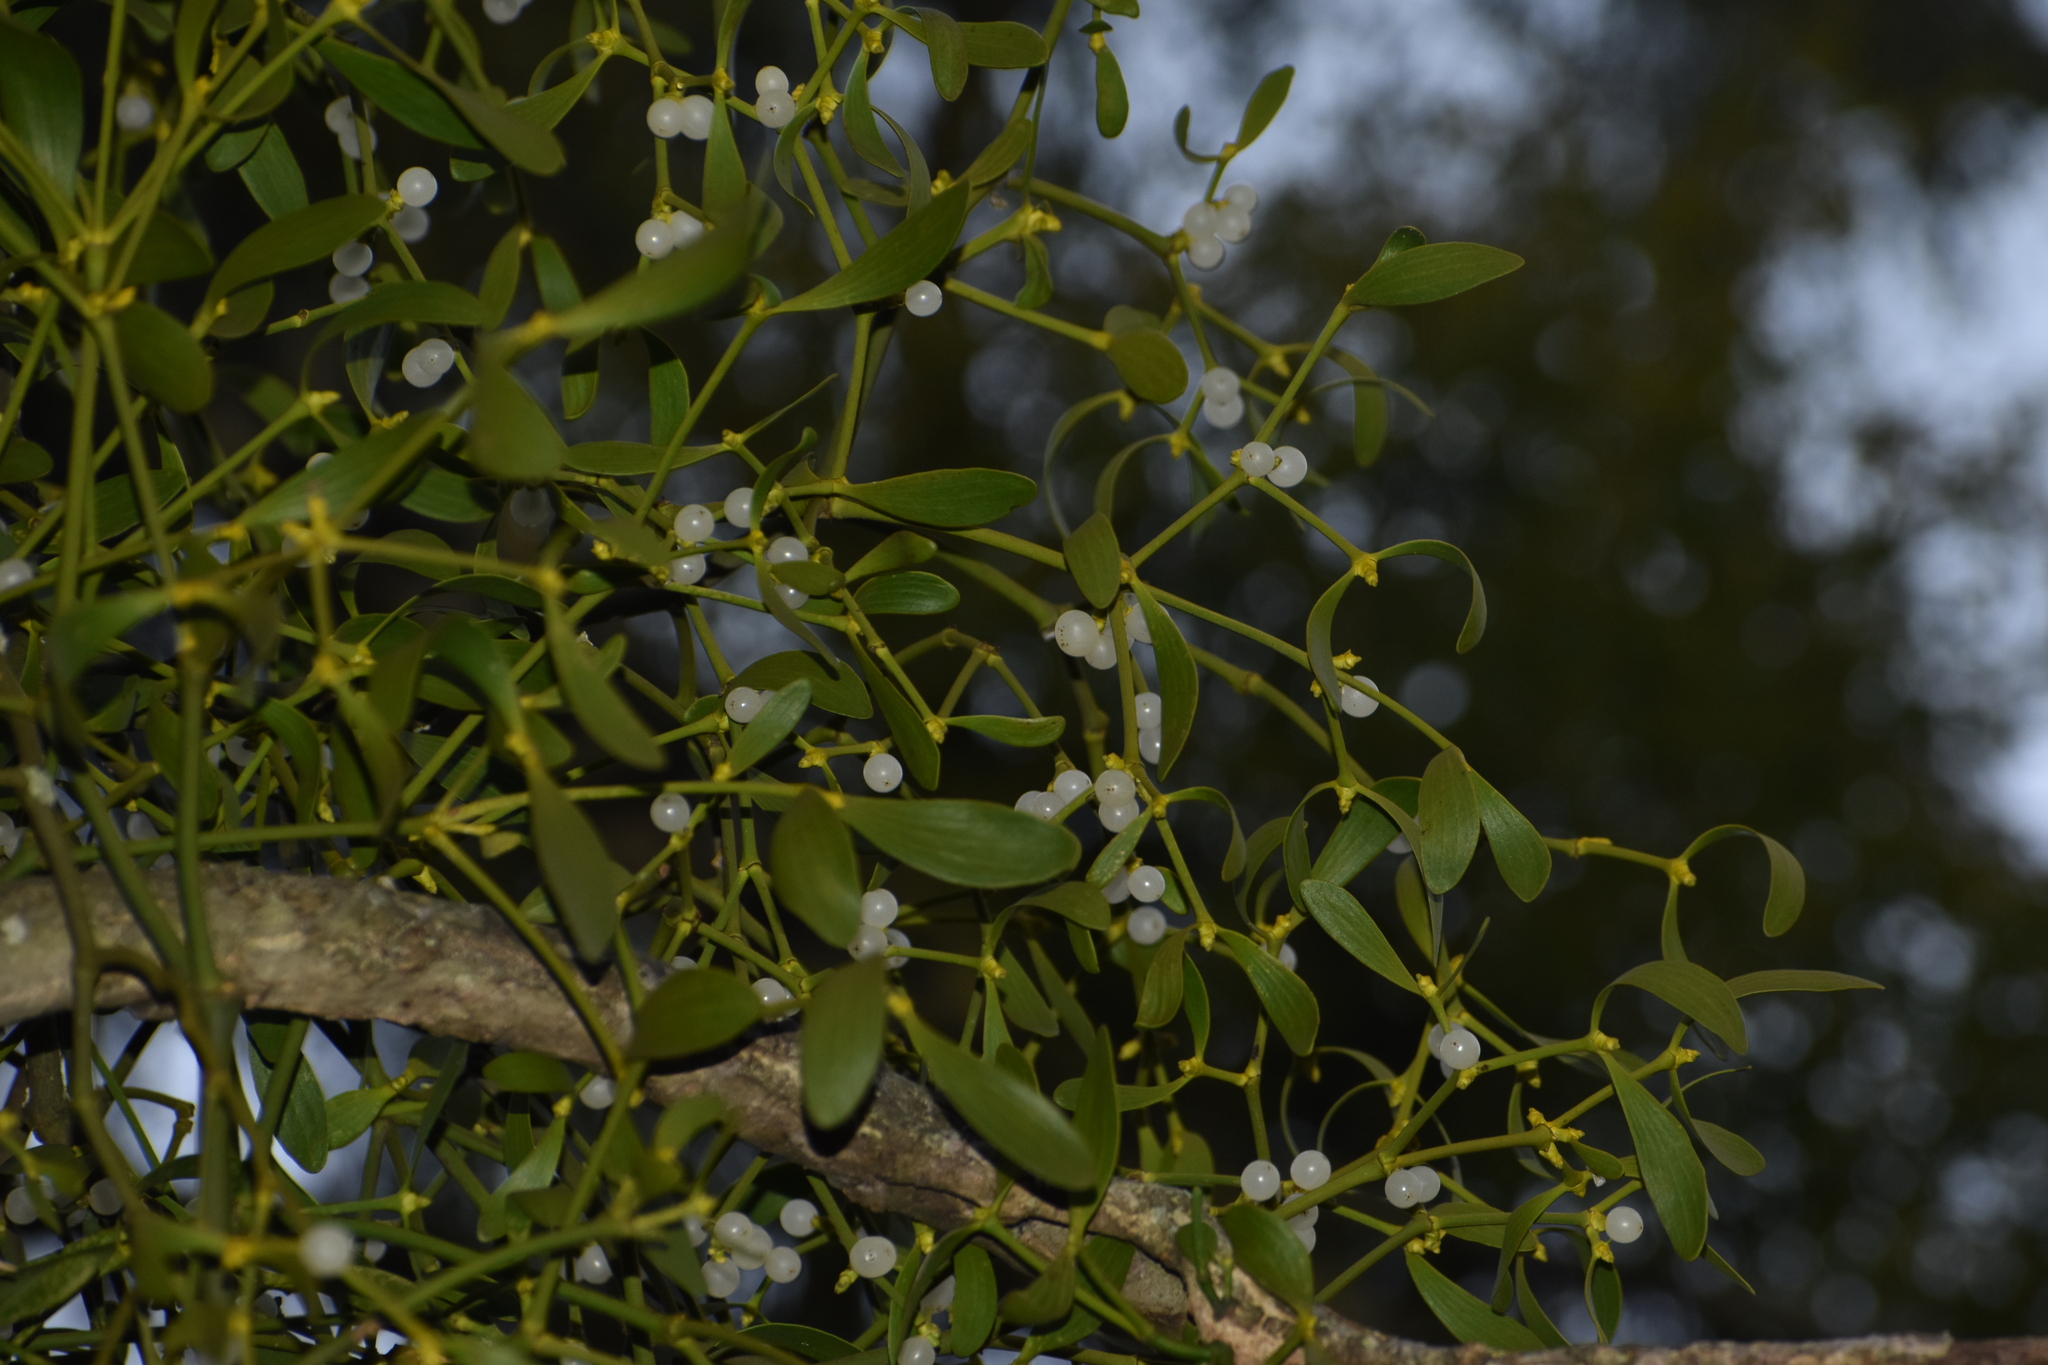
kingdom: Plantae
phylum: Tracheophyta
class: Magnoliopsida
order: Santalales
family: Viscaceae
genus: Viscum
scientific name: Viscum album
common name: Mistletoe
